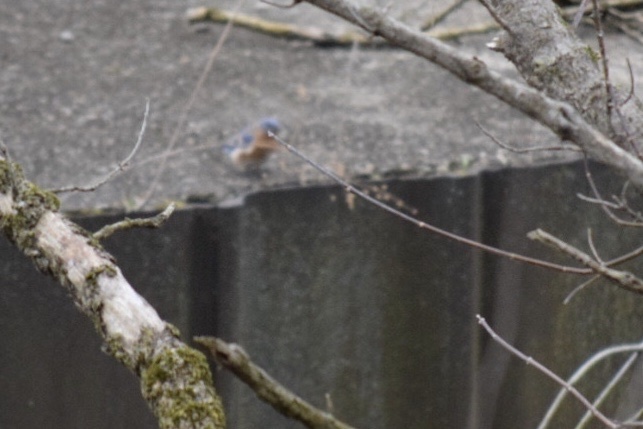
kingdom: Animalia
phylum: Chordata
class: Aves
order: Passeriformes
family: Turdidae
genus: Sialia
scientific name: Sialia sialis
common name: Eastern bluebird
